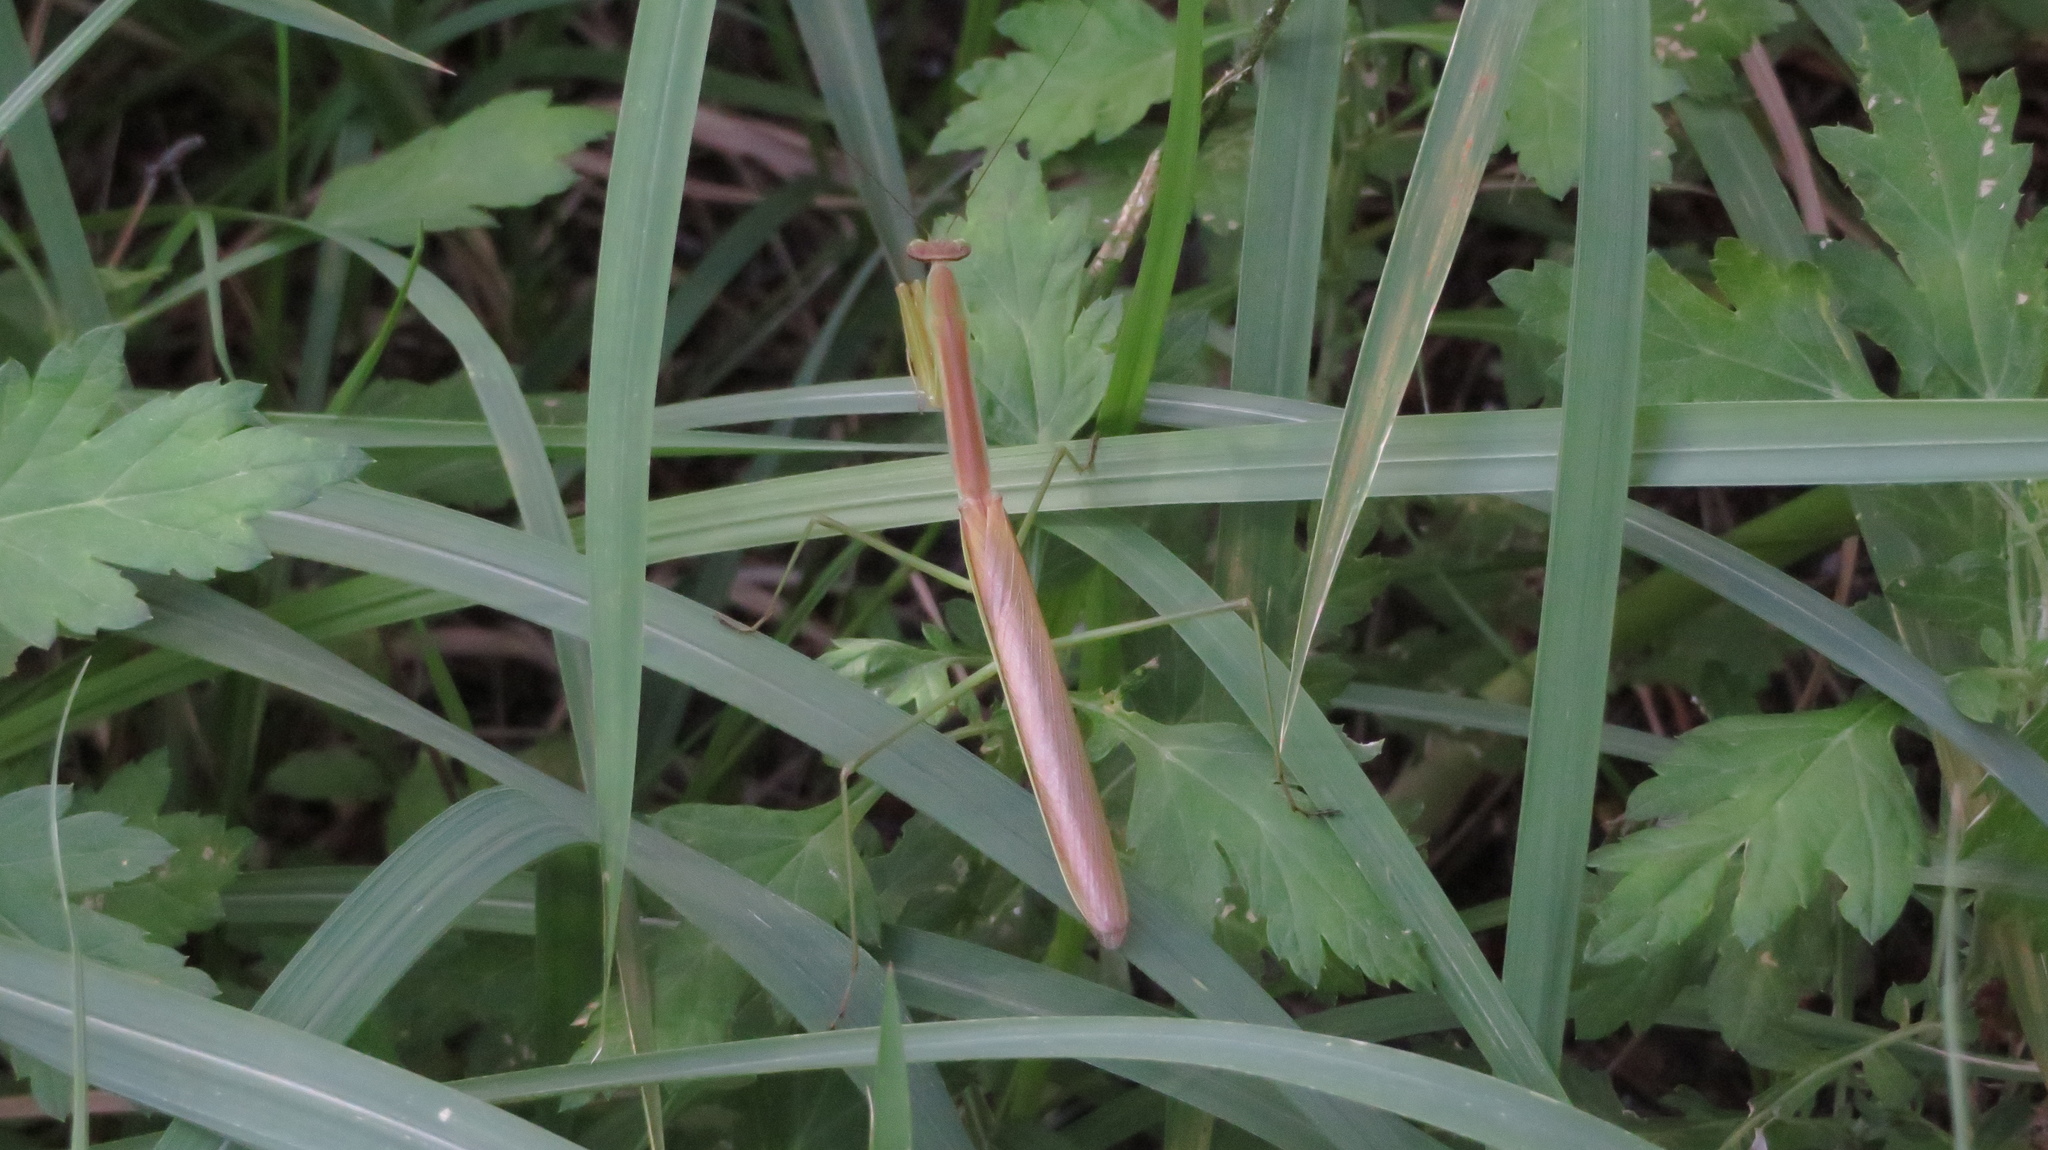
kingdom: Animalia
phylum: Arthropoda
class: Insecta
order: Mantodea
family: Mantidae
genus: Tenodera
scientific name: Tenodera angustipennis
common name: Asian mantis
